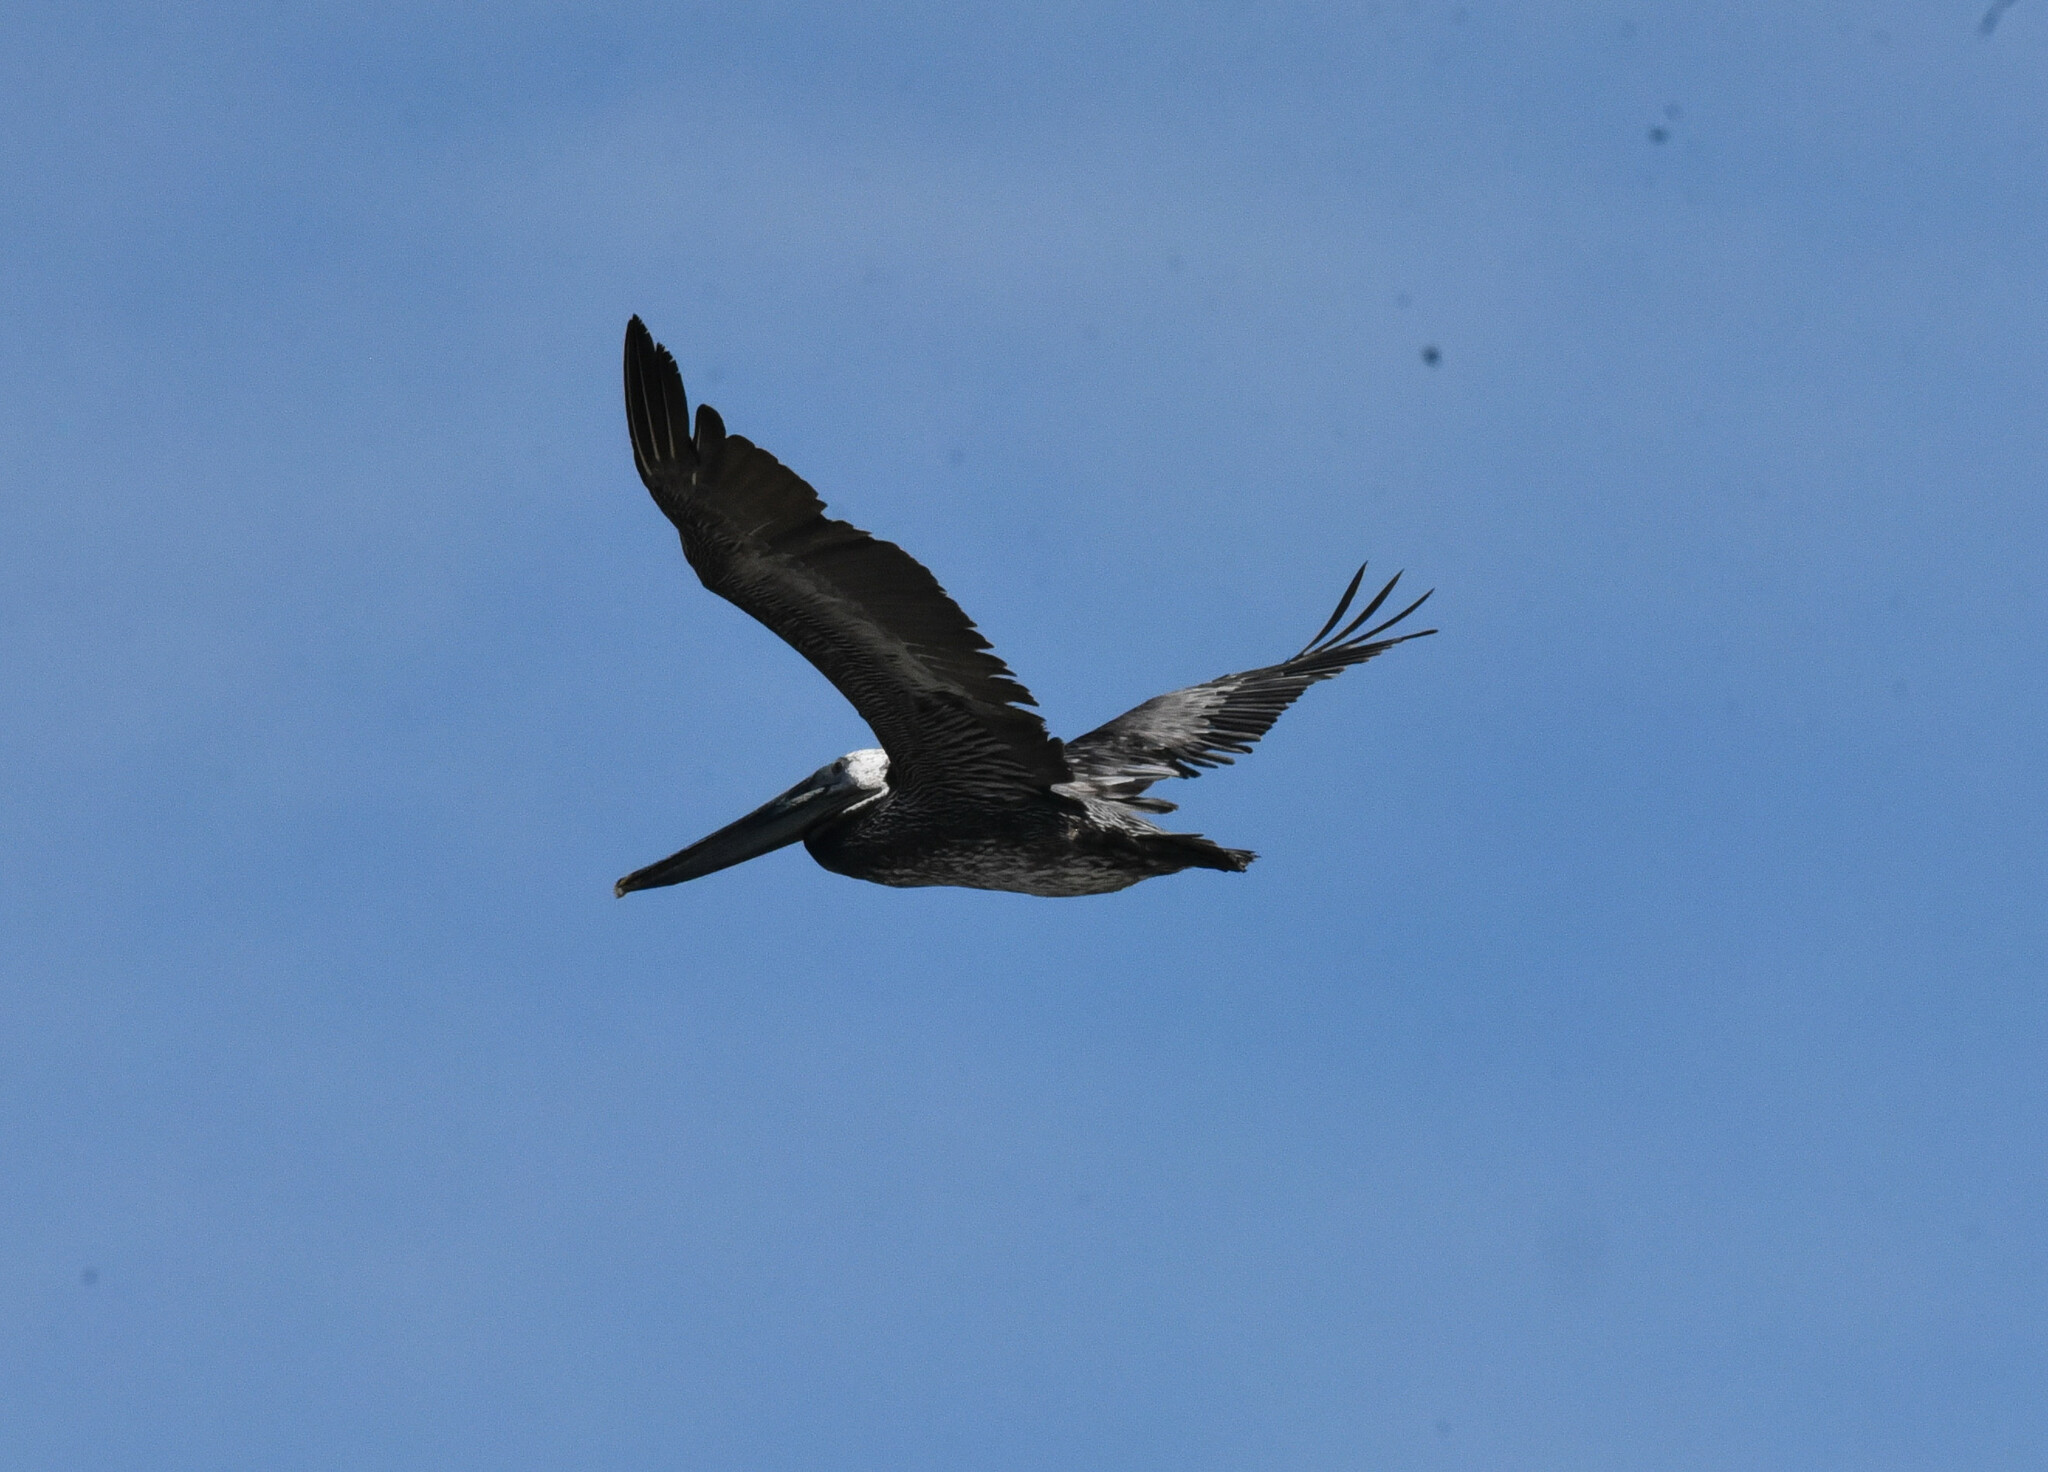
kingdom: Animalia
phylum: Chordata
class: Aves
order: Pelecaniformes
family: Pelecanidae
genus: Pelecanus
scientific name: Pelecanus occidentalis
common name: Brown pelican
